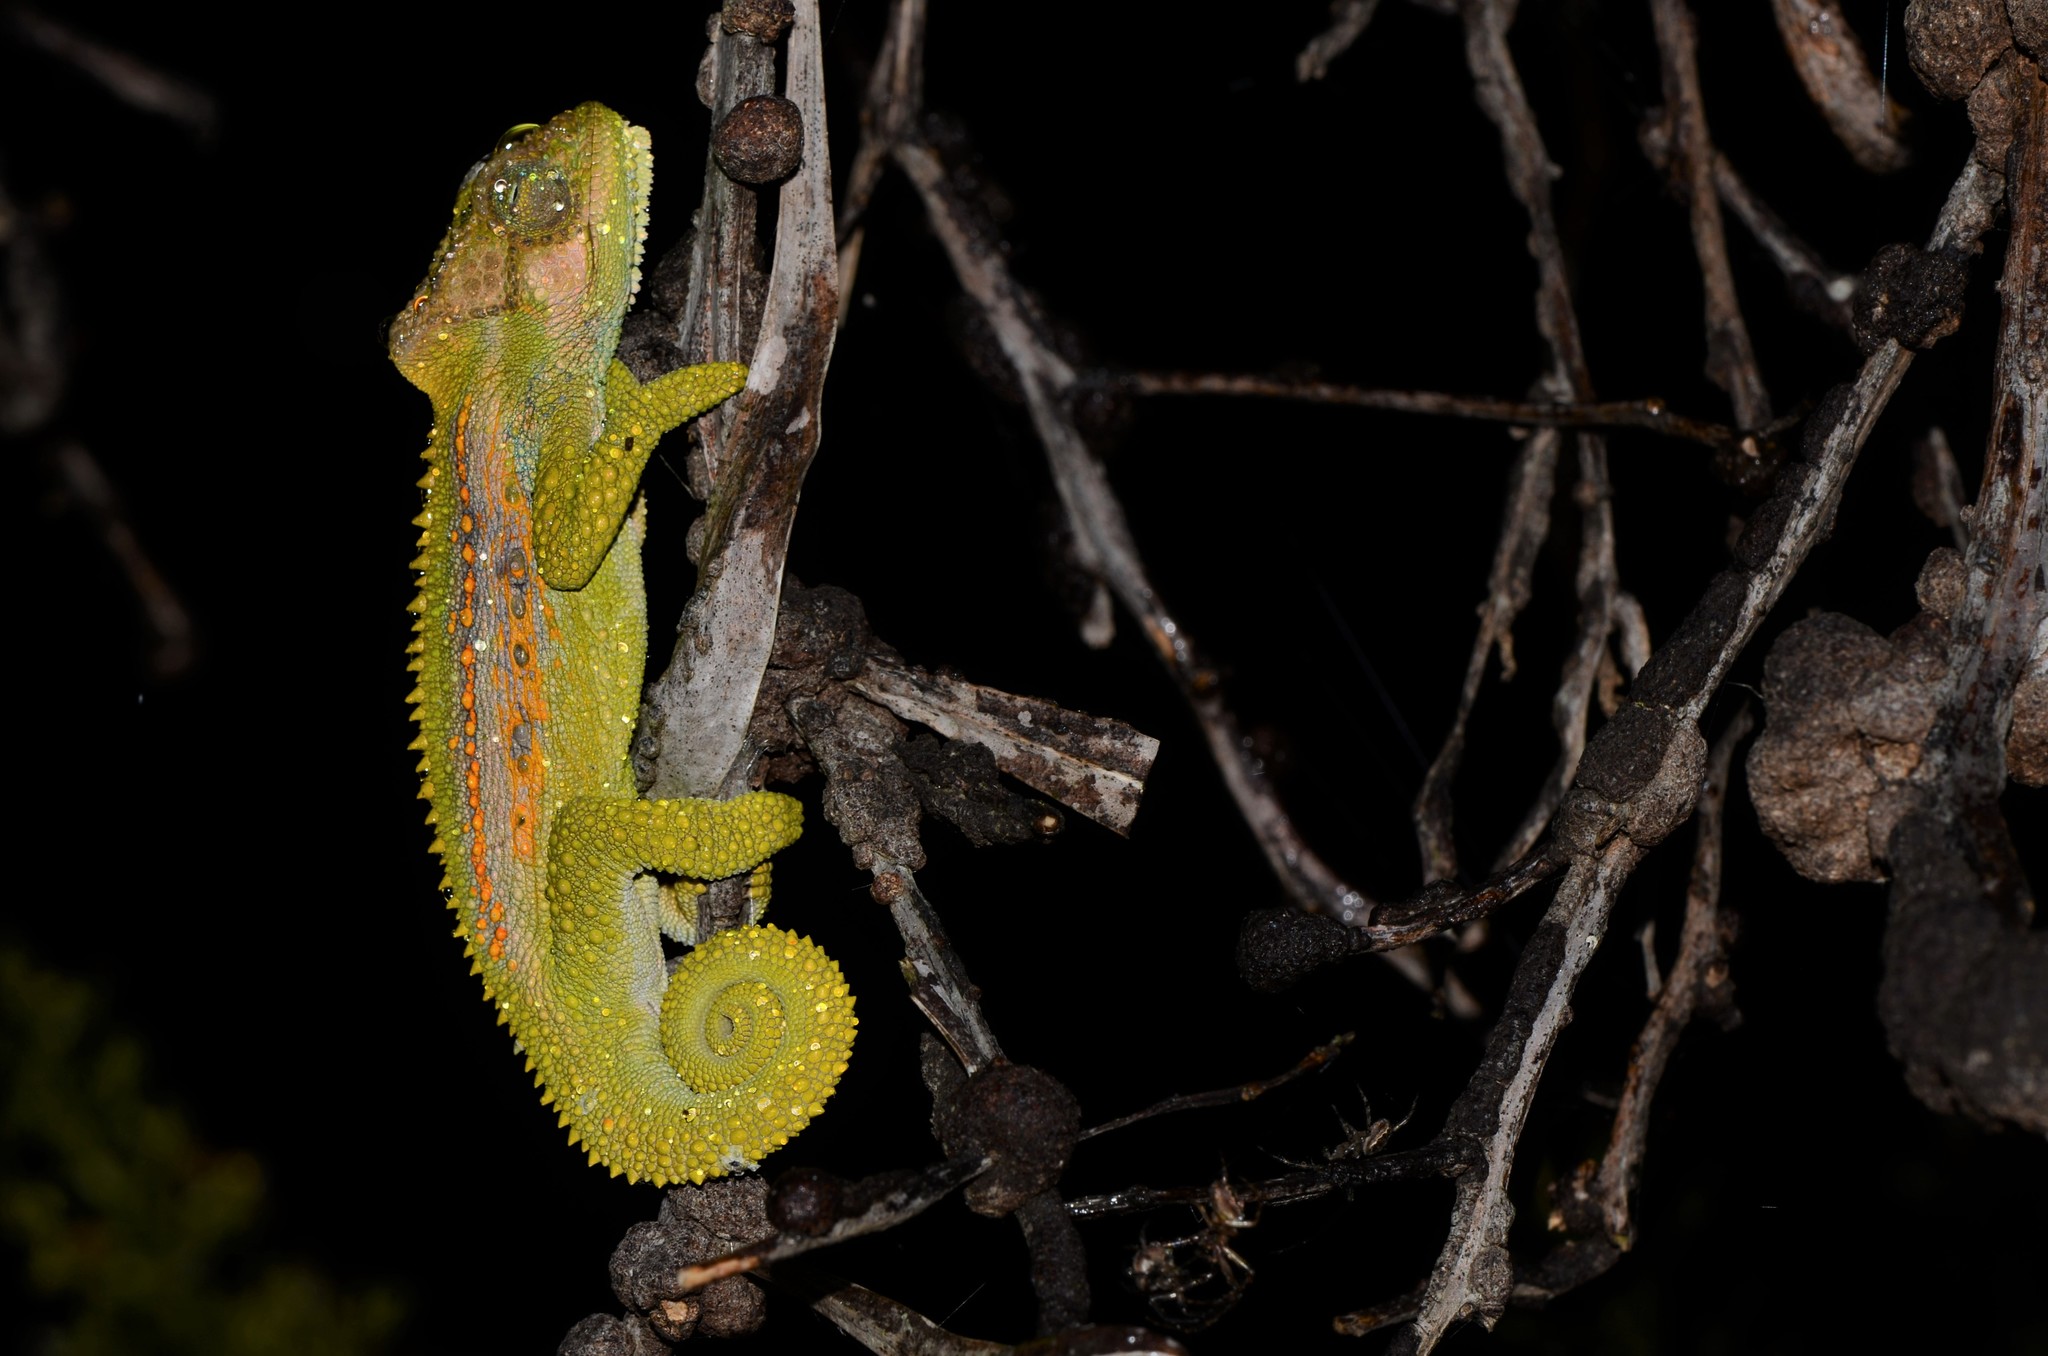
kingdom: Animalia
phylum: Chordata
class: Squamata
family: Chamaeleonidae
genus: Bradypodion
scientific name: Bradypodion pumilum
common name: Cape dwarf chameleon
